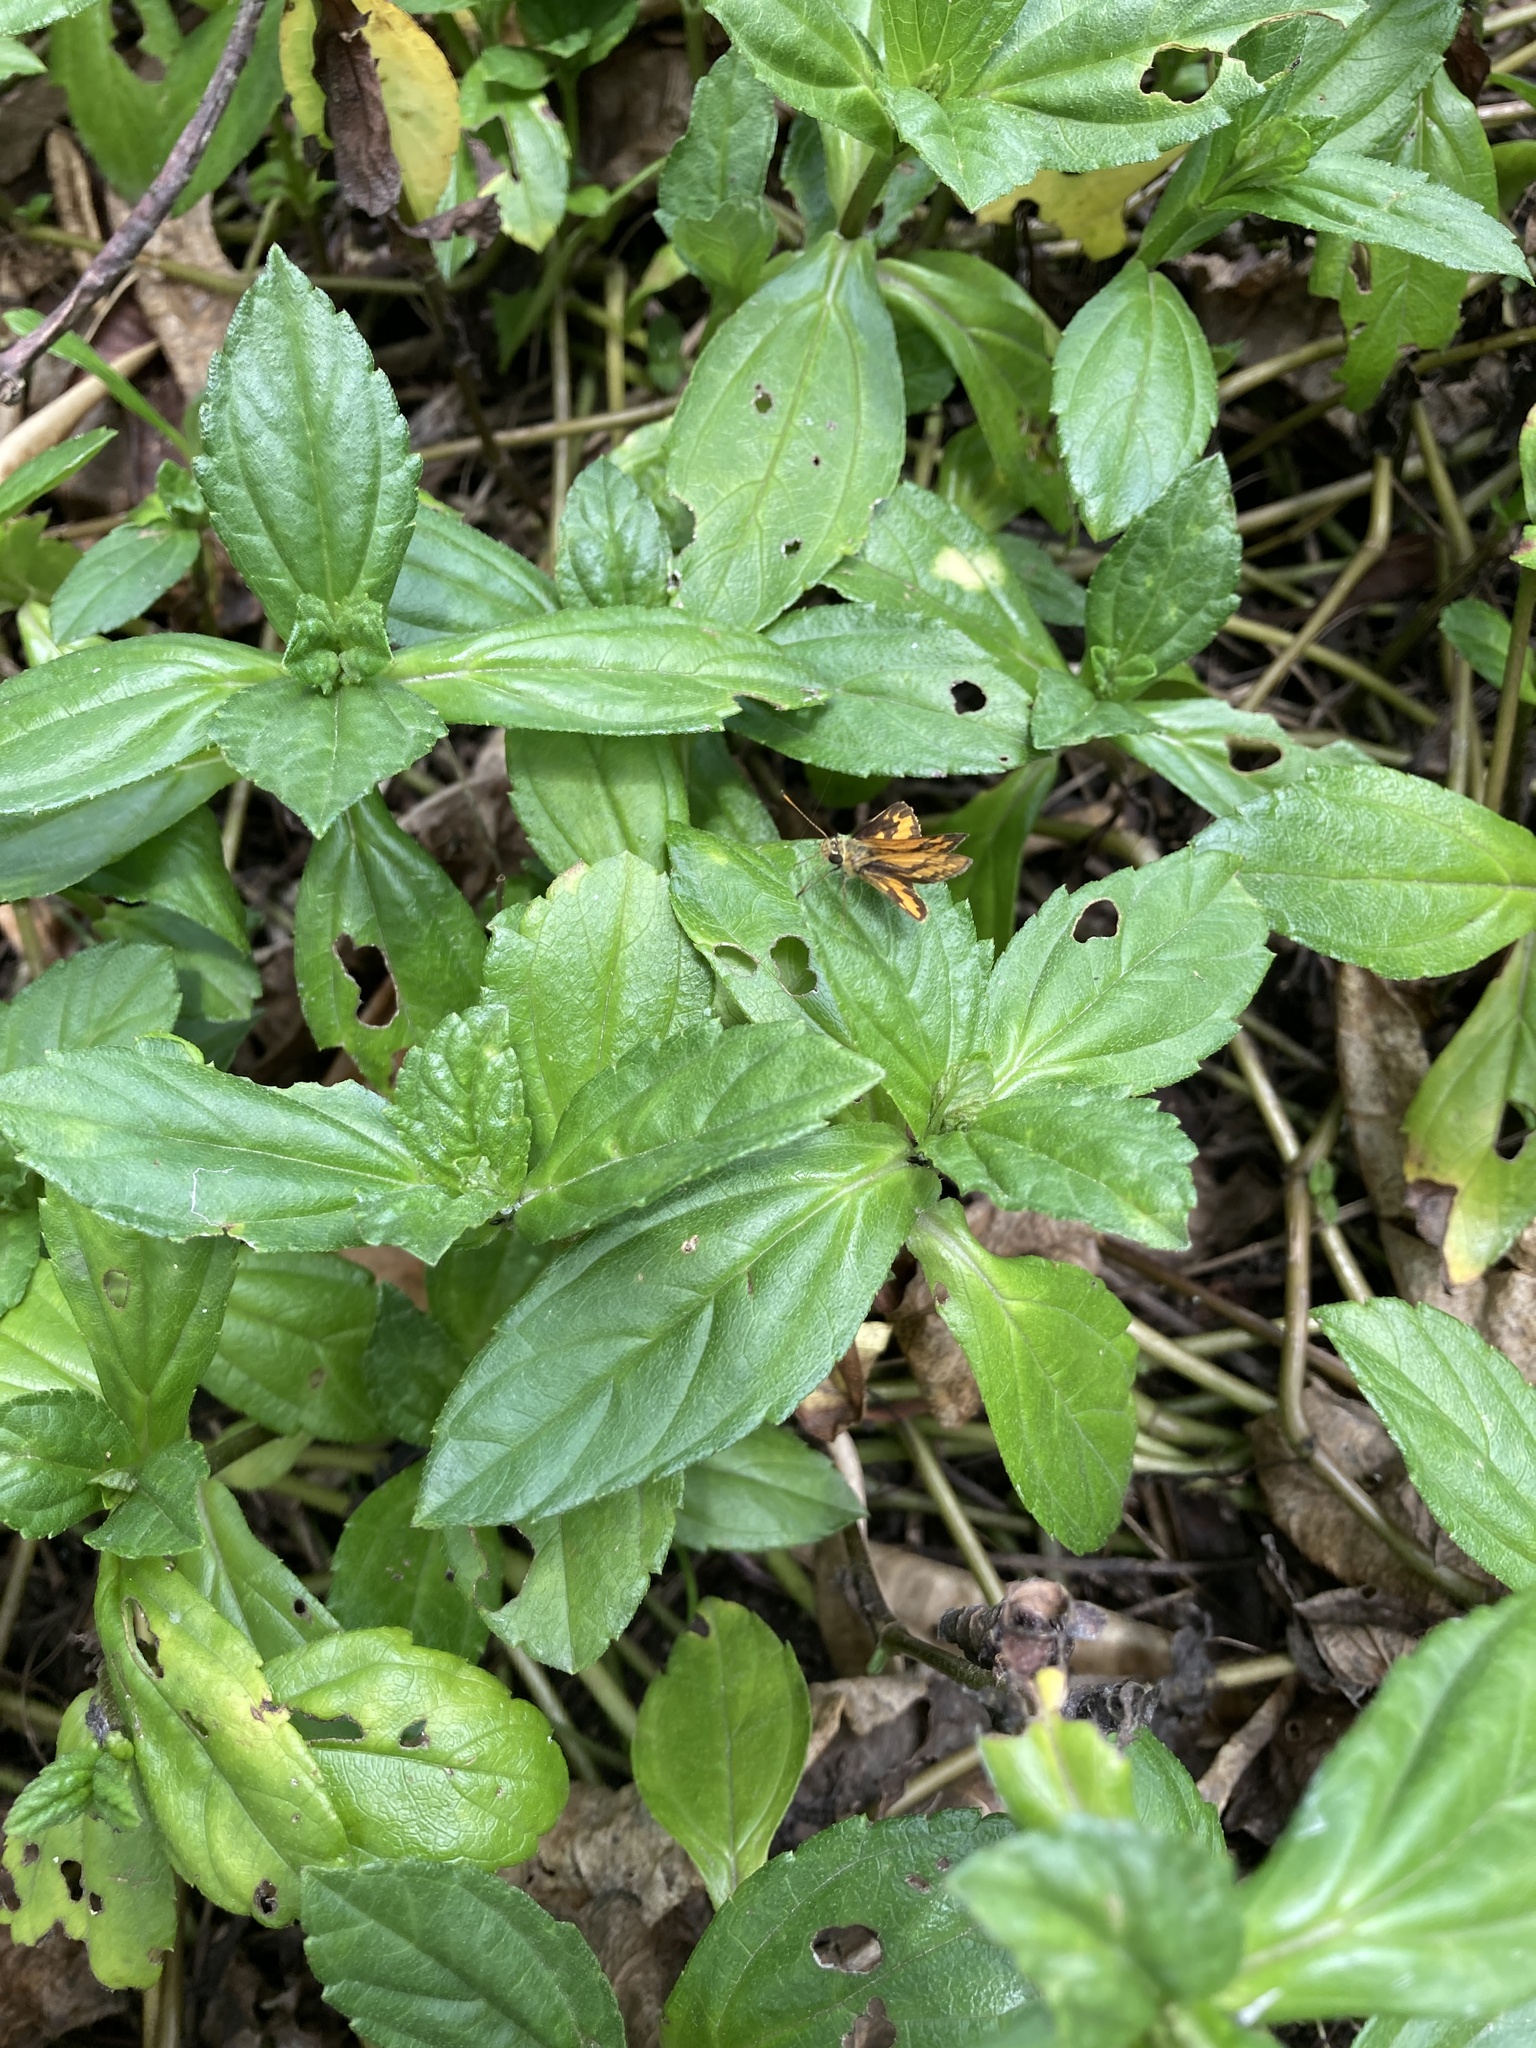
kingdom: Plantae
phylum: Tracheophyta
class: Magnoliopsida
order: Asterales
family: Asteraceae
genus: Sphagneticola
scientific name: Sphagneticola trilobata
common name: Bay biscayne creeping-oxeye
